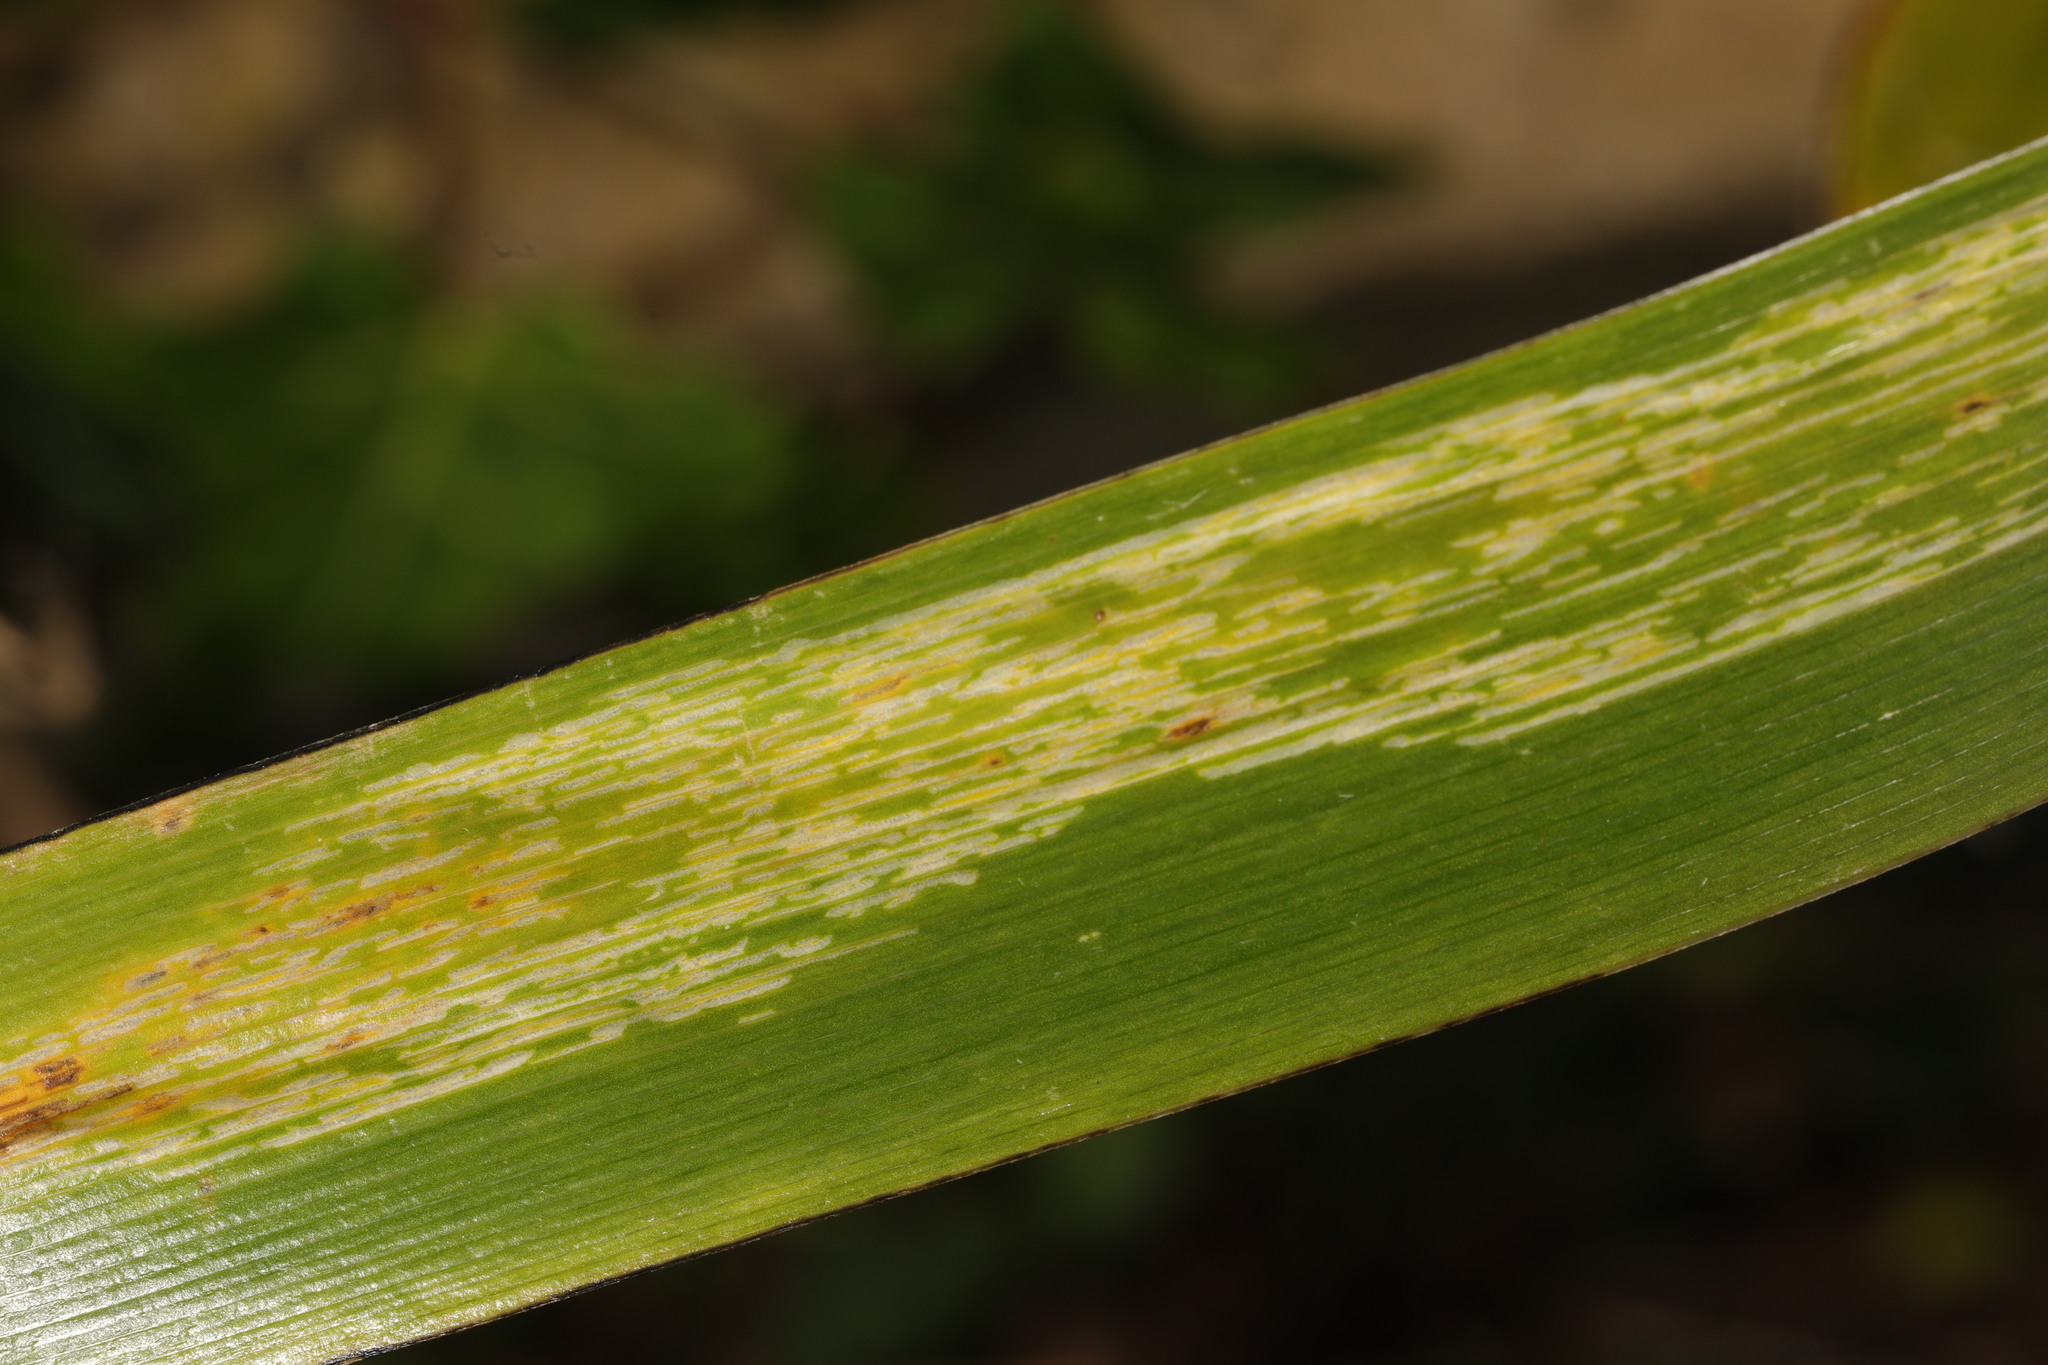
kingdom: Animalia
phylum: Arthropoda
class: Insecta
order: Diptera
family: Agromyzidae
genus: Phytobia
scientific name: Phytobia iridis
